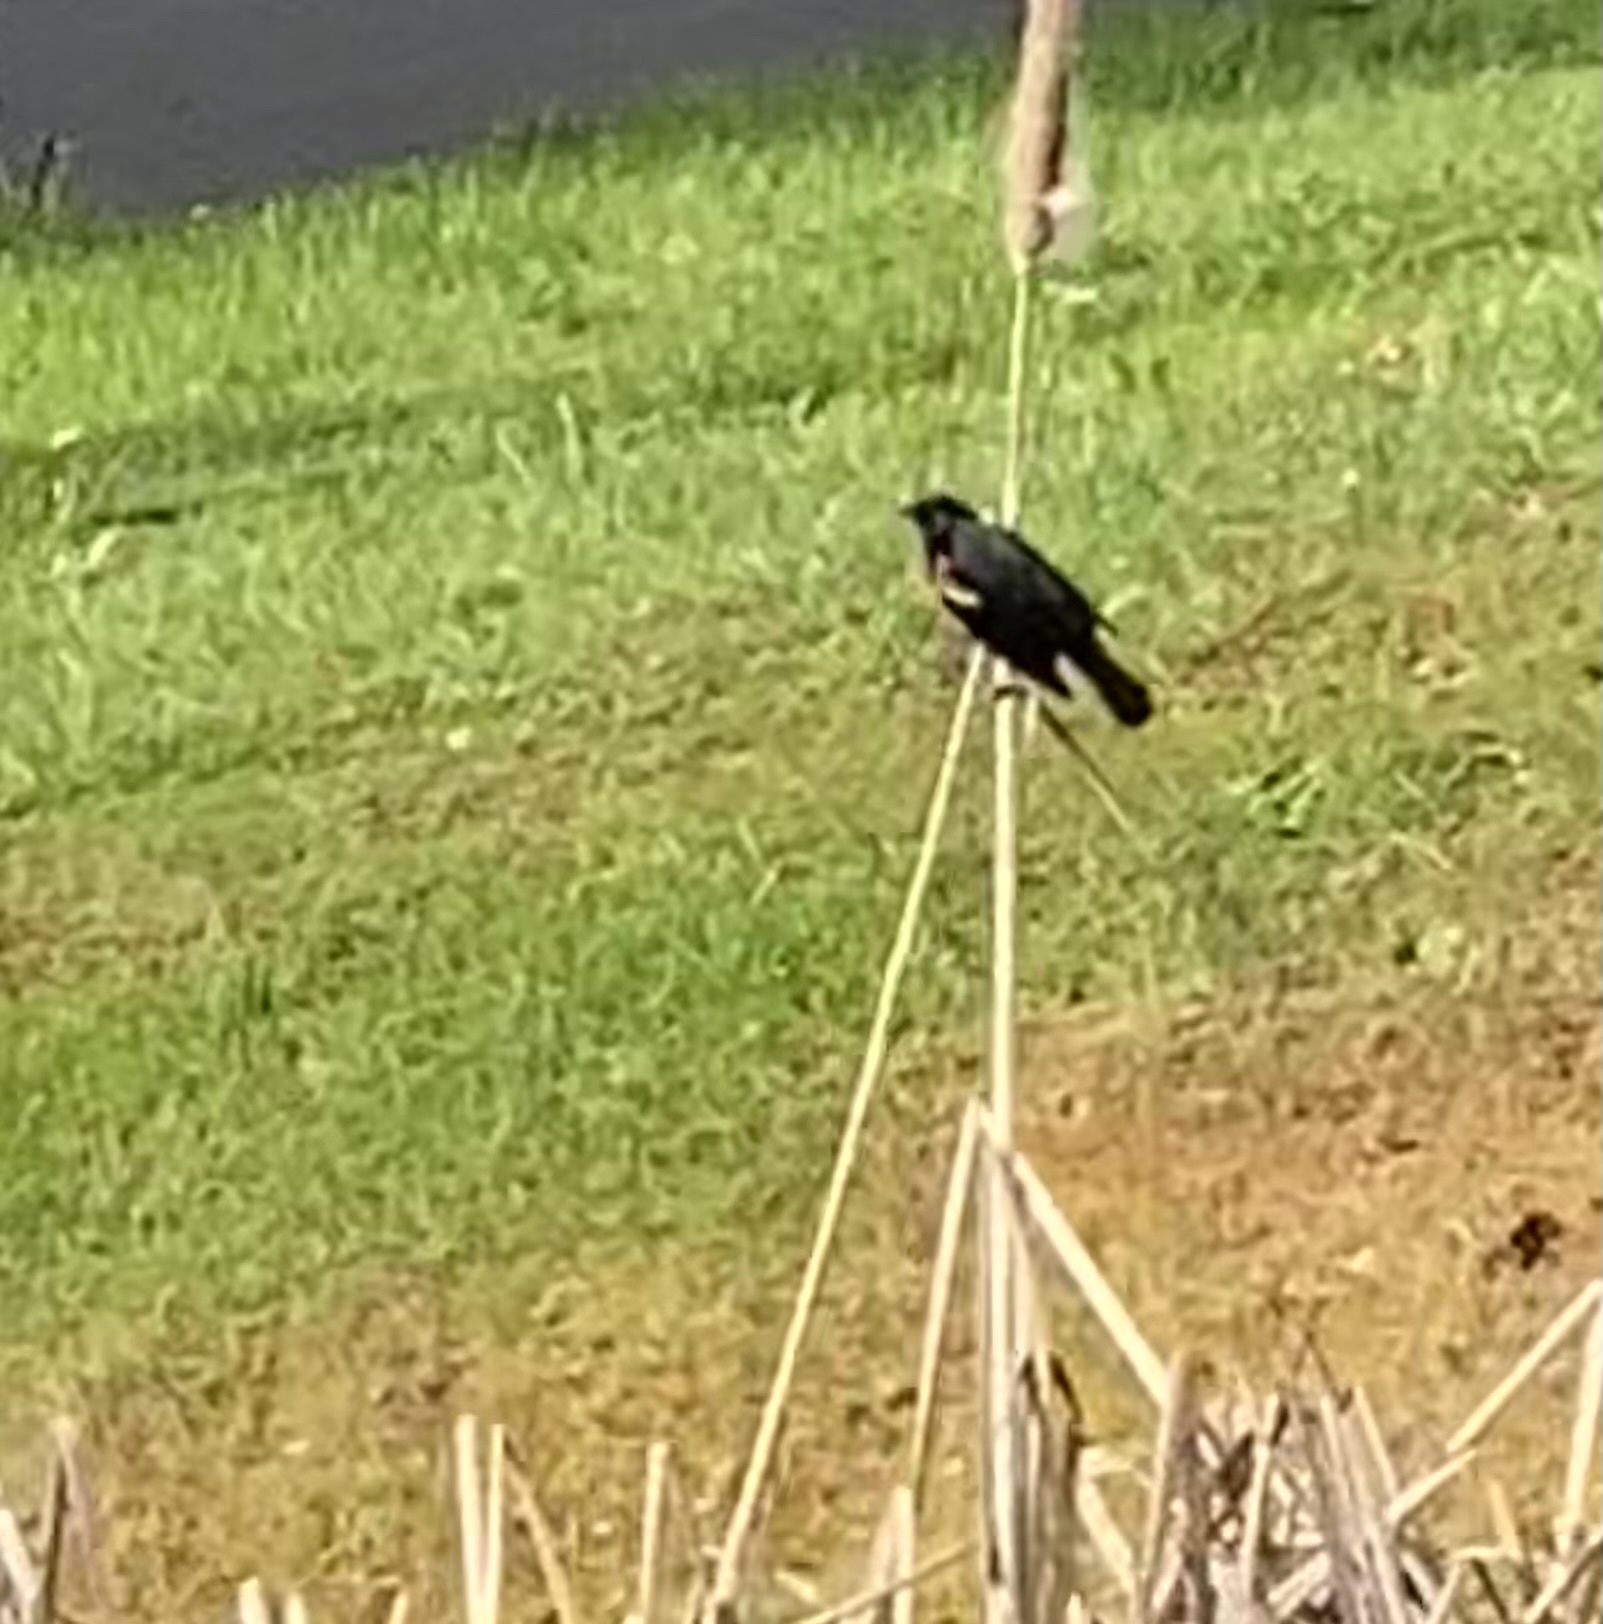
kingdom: Animalia
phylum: Chordata
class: Aves
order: Passeriformes
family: Icteridae
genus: Agelaius
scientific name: Agelaius phoeniceus
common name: Red-winged blackbird
